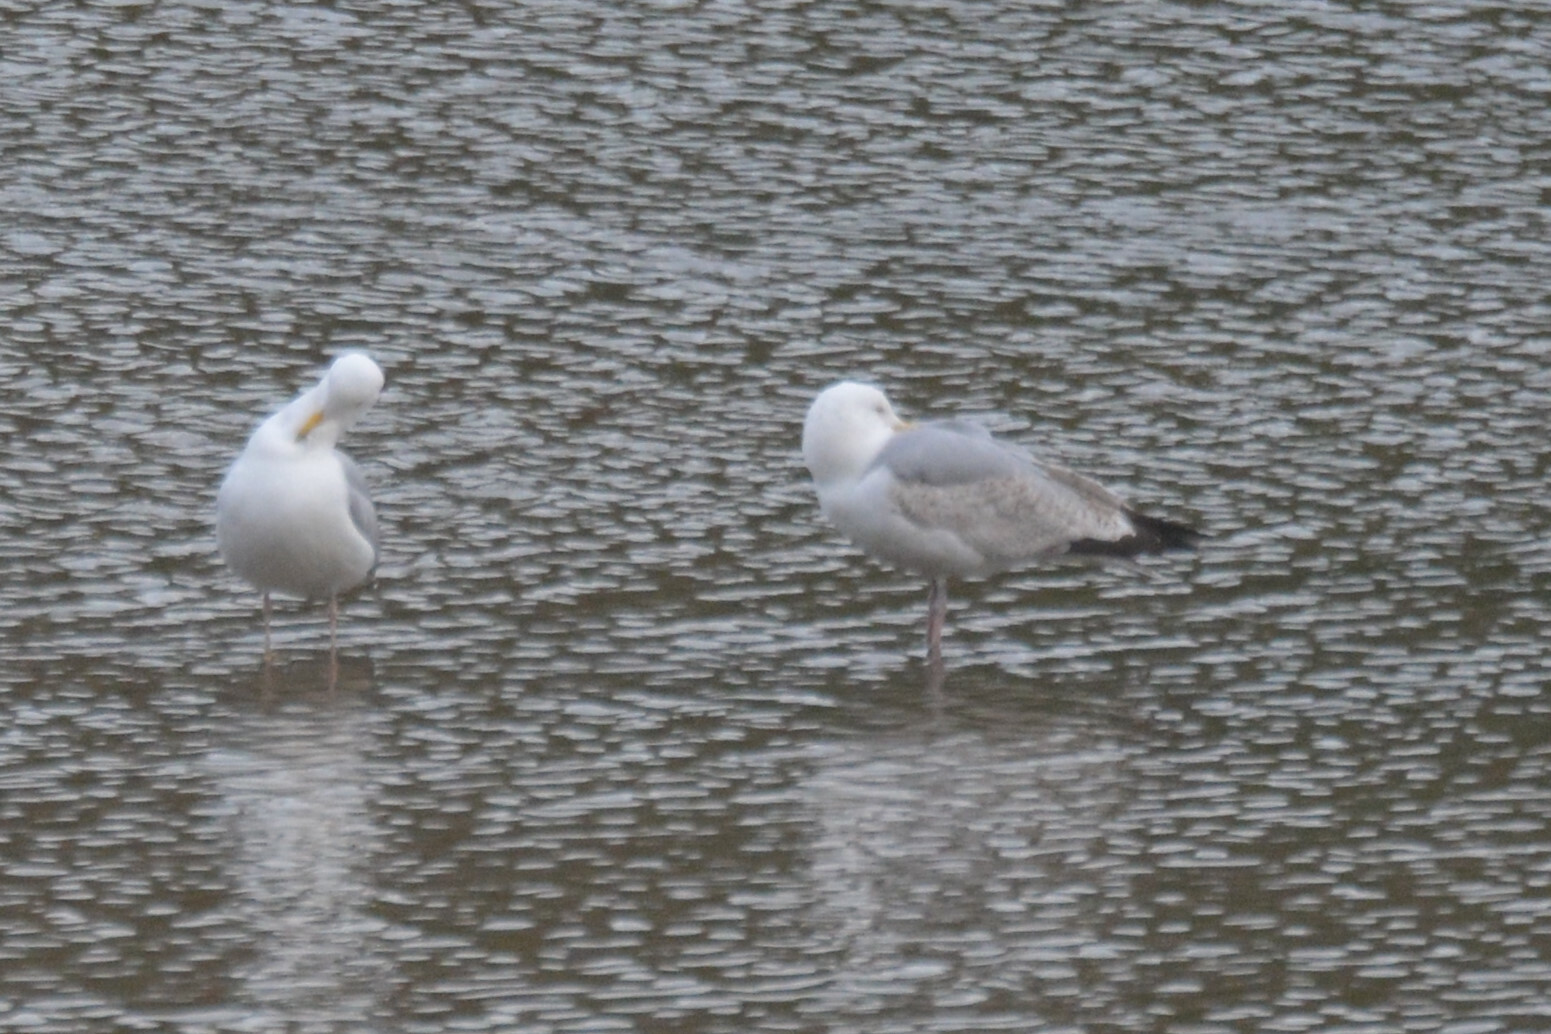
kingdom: Animalia
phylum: Chordata
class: Aves
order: Charadriiformes
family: Laridae
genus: Larus
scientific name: Larus argentatus
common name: Herring gull
